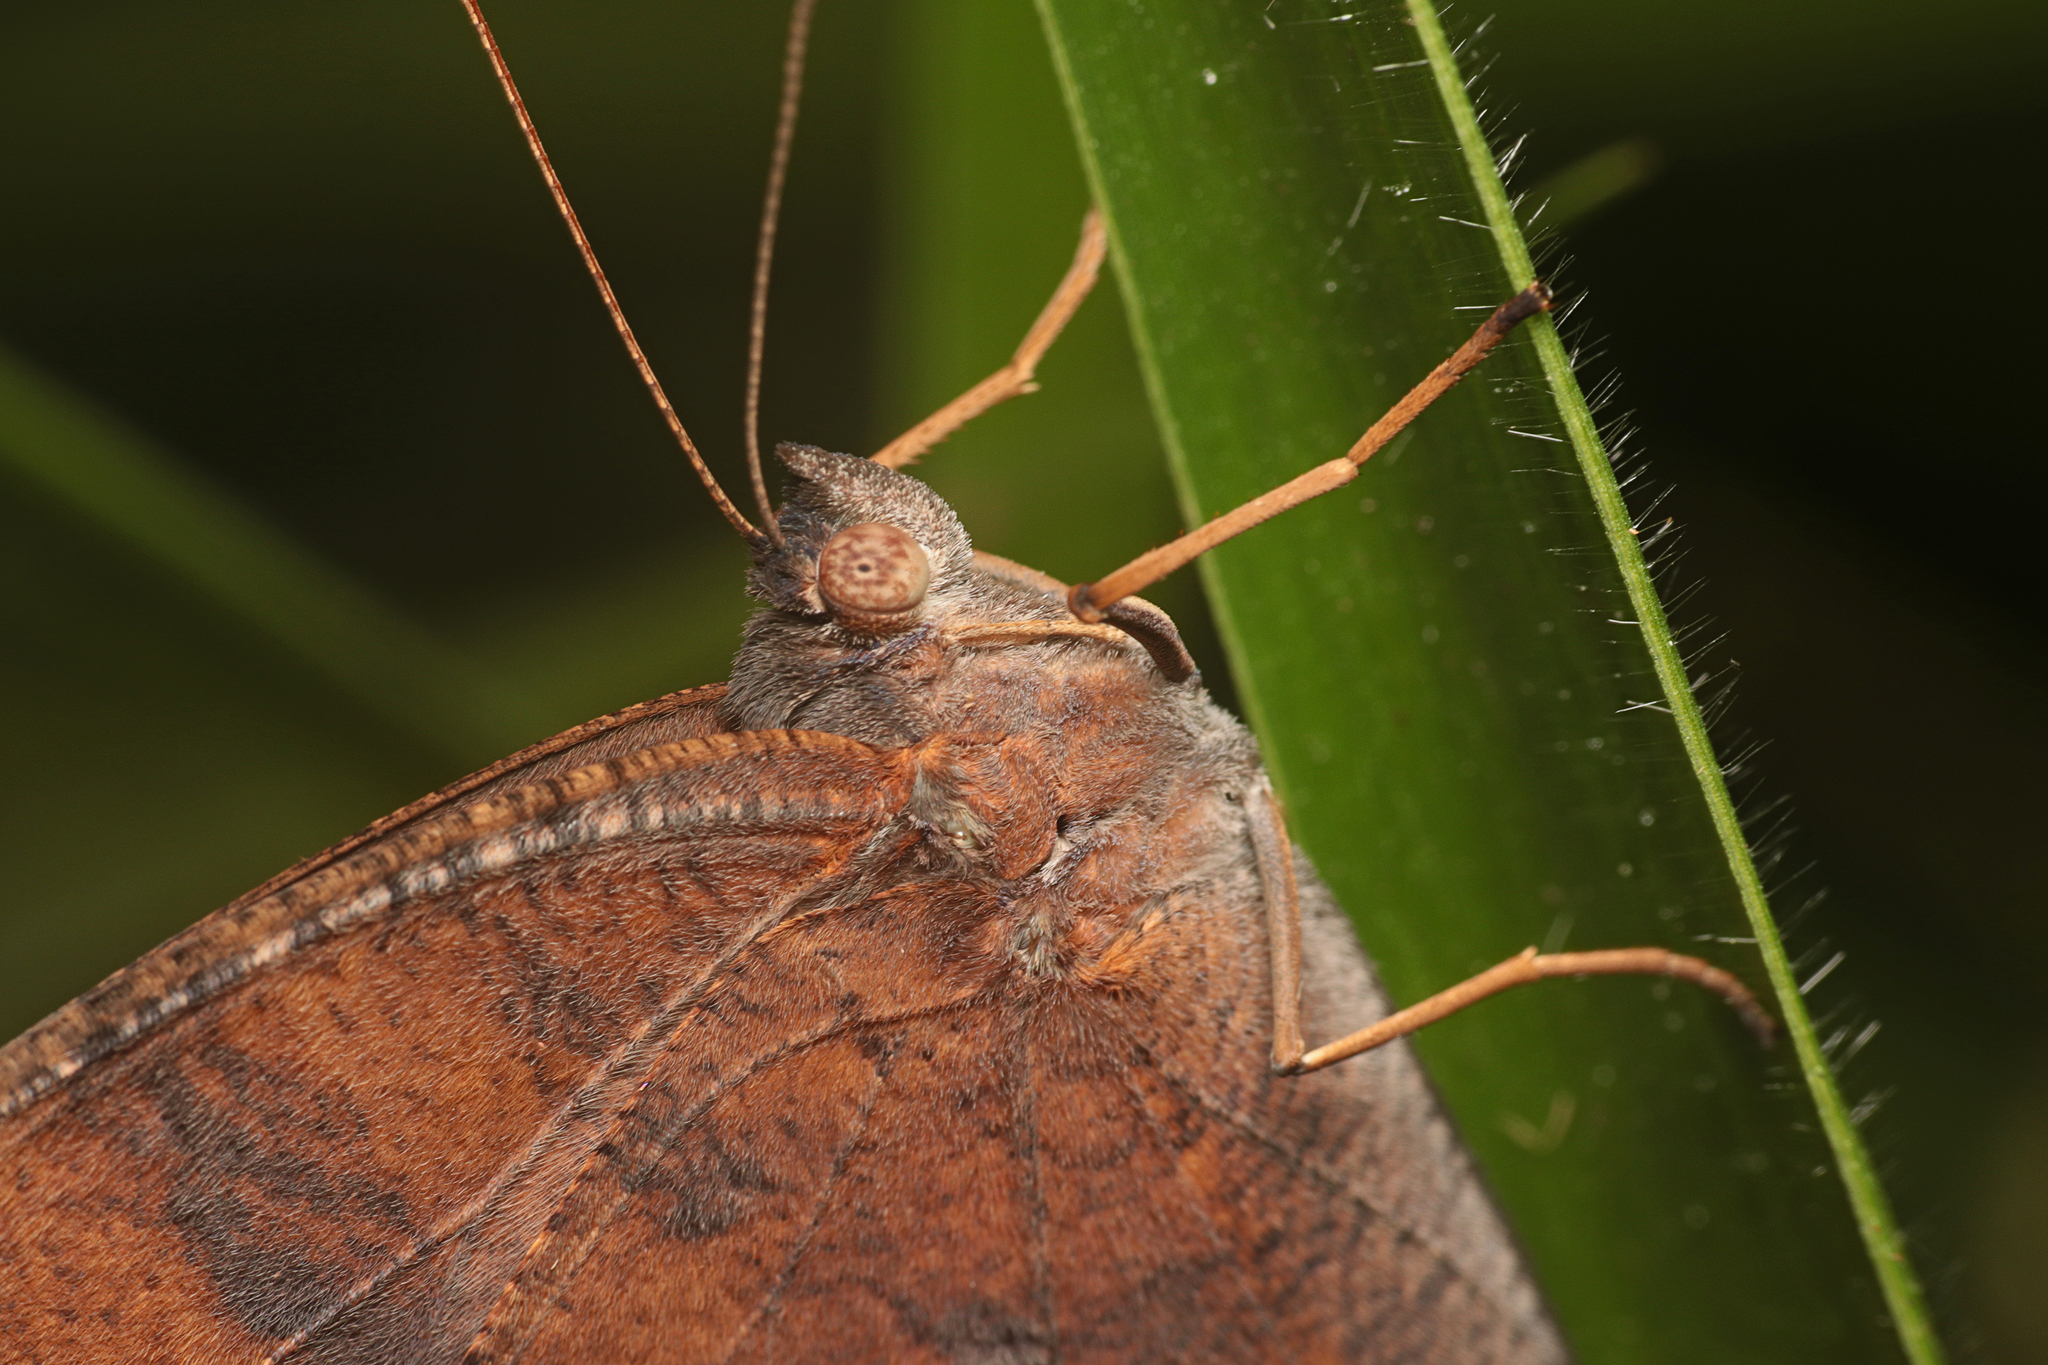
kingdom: Animalia
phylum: Arthropoda
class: Insecta
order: Lepidoptera
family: Nymphalidae
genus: Melanitis
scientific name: Melanitis leda
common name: Twilight brown
